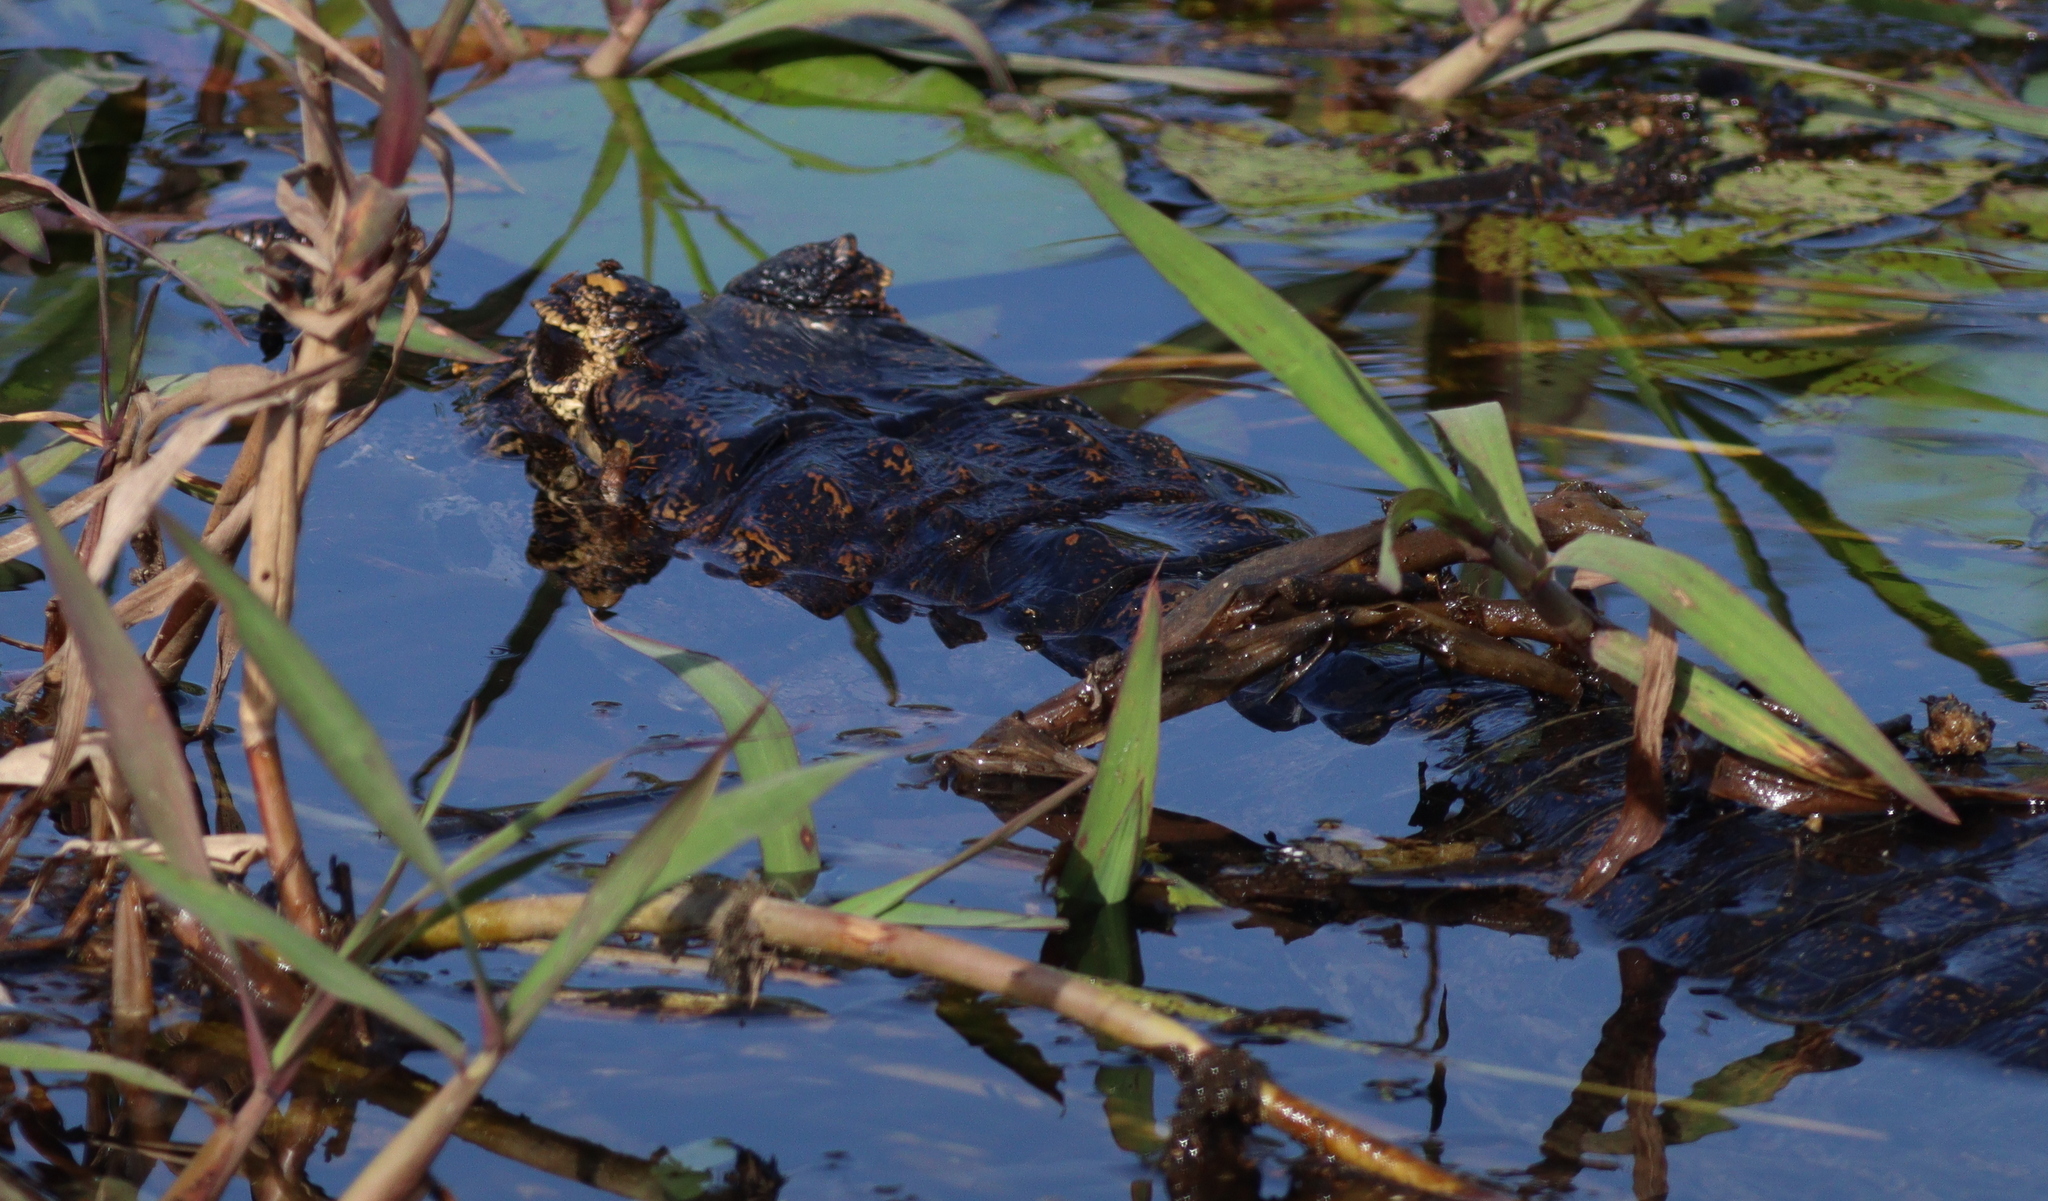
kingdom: Animalia
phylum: Chordata
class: Crocodylia
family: Alligatoridae
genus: Caiman
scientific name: Caiman yacare
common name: Yacare caiman
